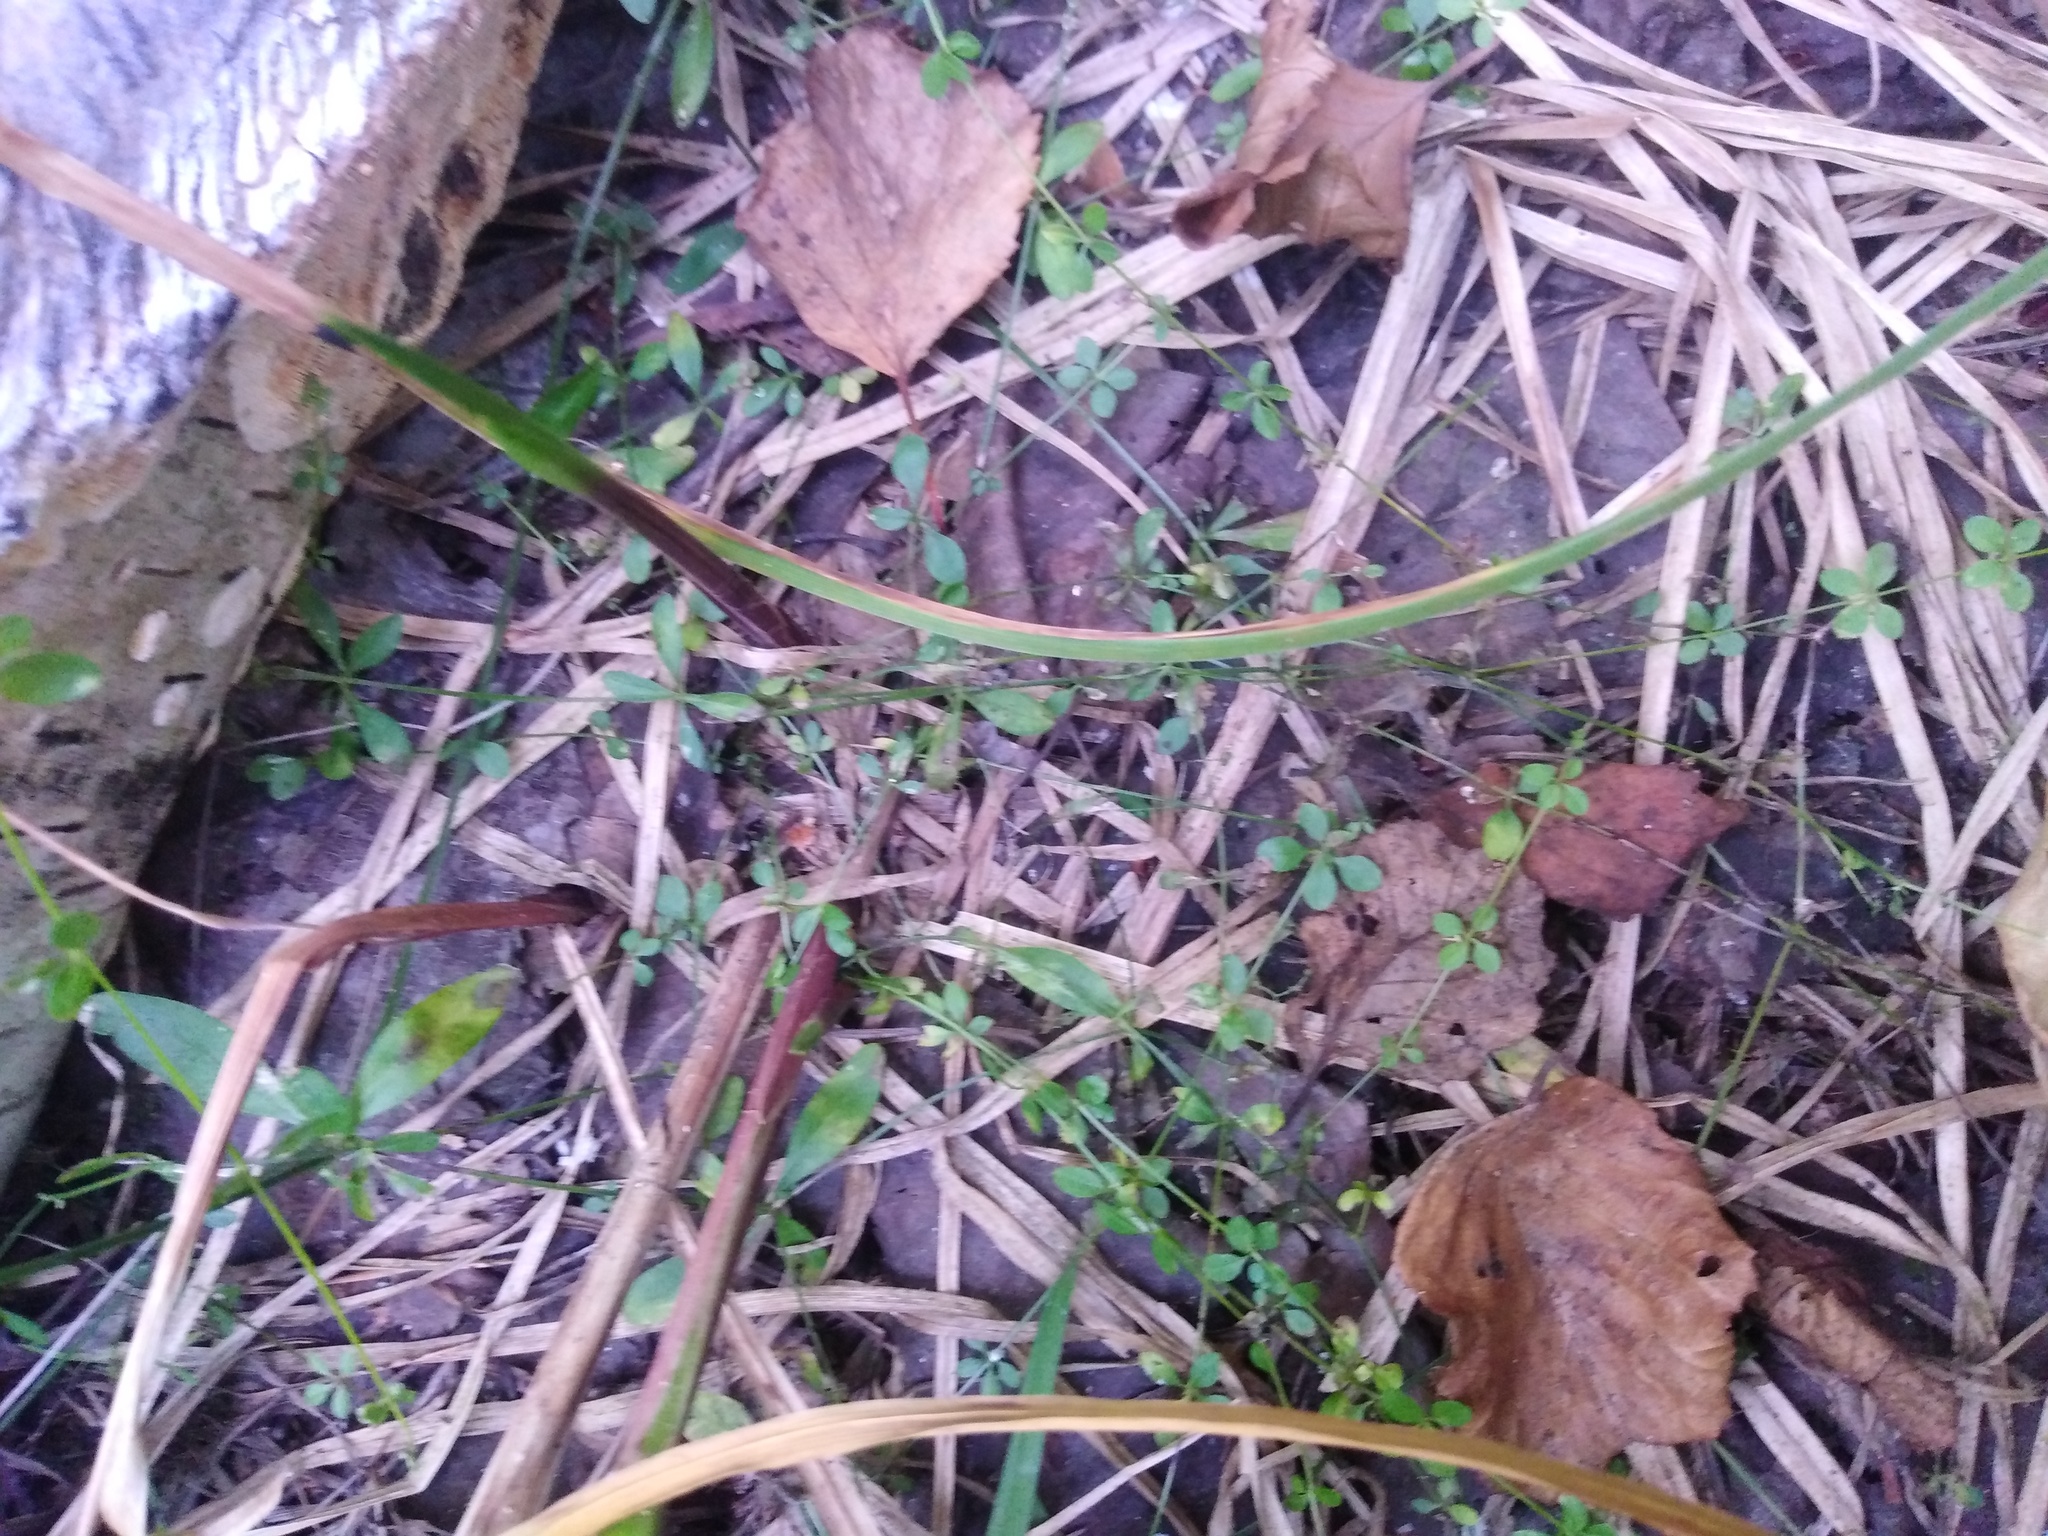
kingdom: Plantae
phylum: Tracheophyta
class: Magnoliopsida
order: Gentianales
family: Rubiaceae
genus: Galium
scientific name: Galium palustre
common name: Common marsh-bedstraw
